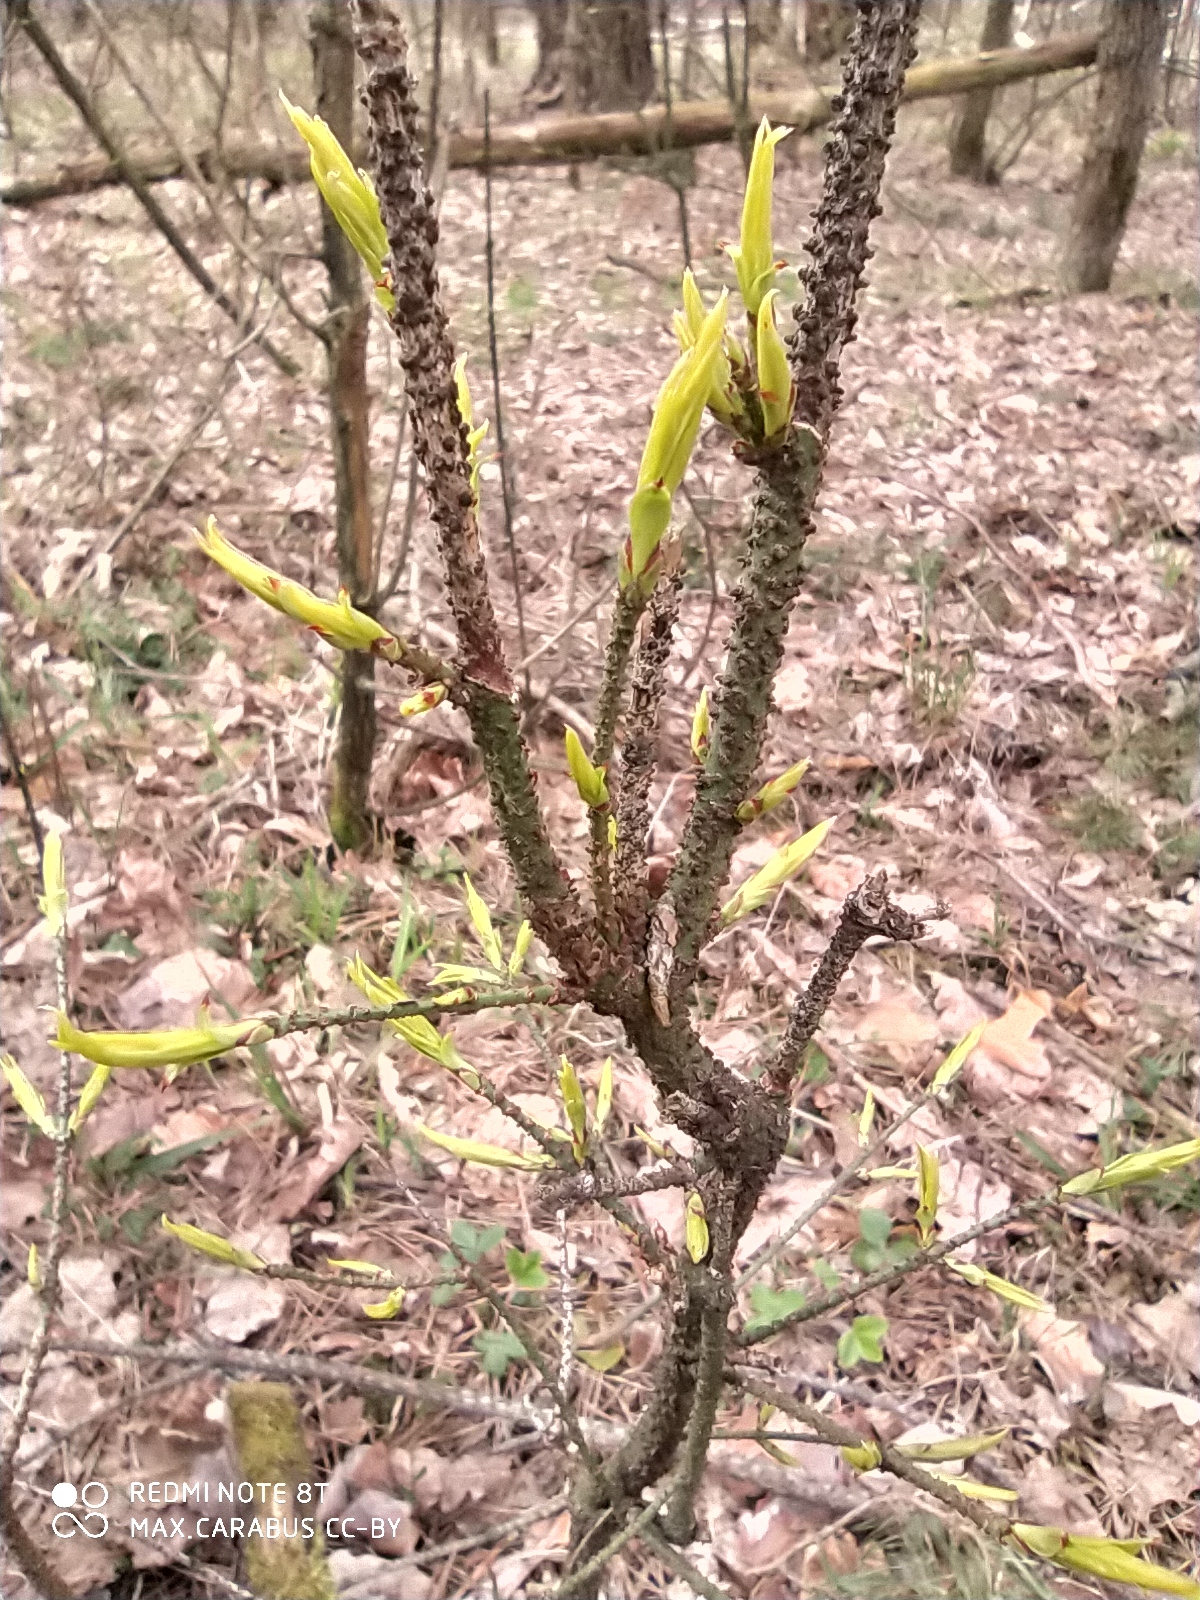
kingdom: Plantae
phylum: Tracheophyta
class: Magnoliopsida
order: Celastrales
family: Celastraceae
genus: Euonymus
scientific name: Euonymus verrucosus
